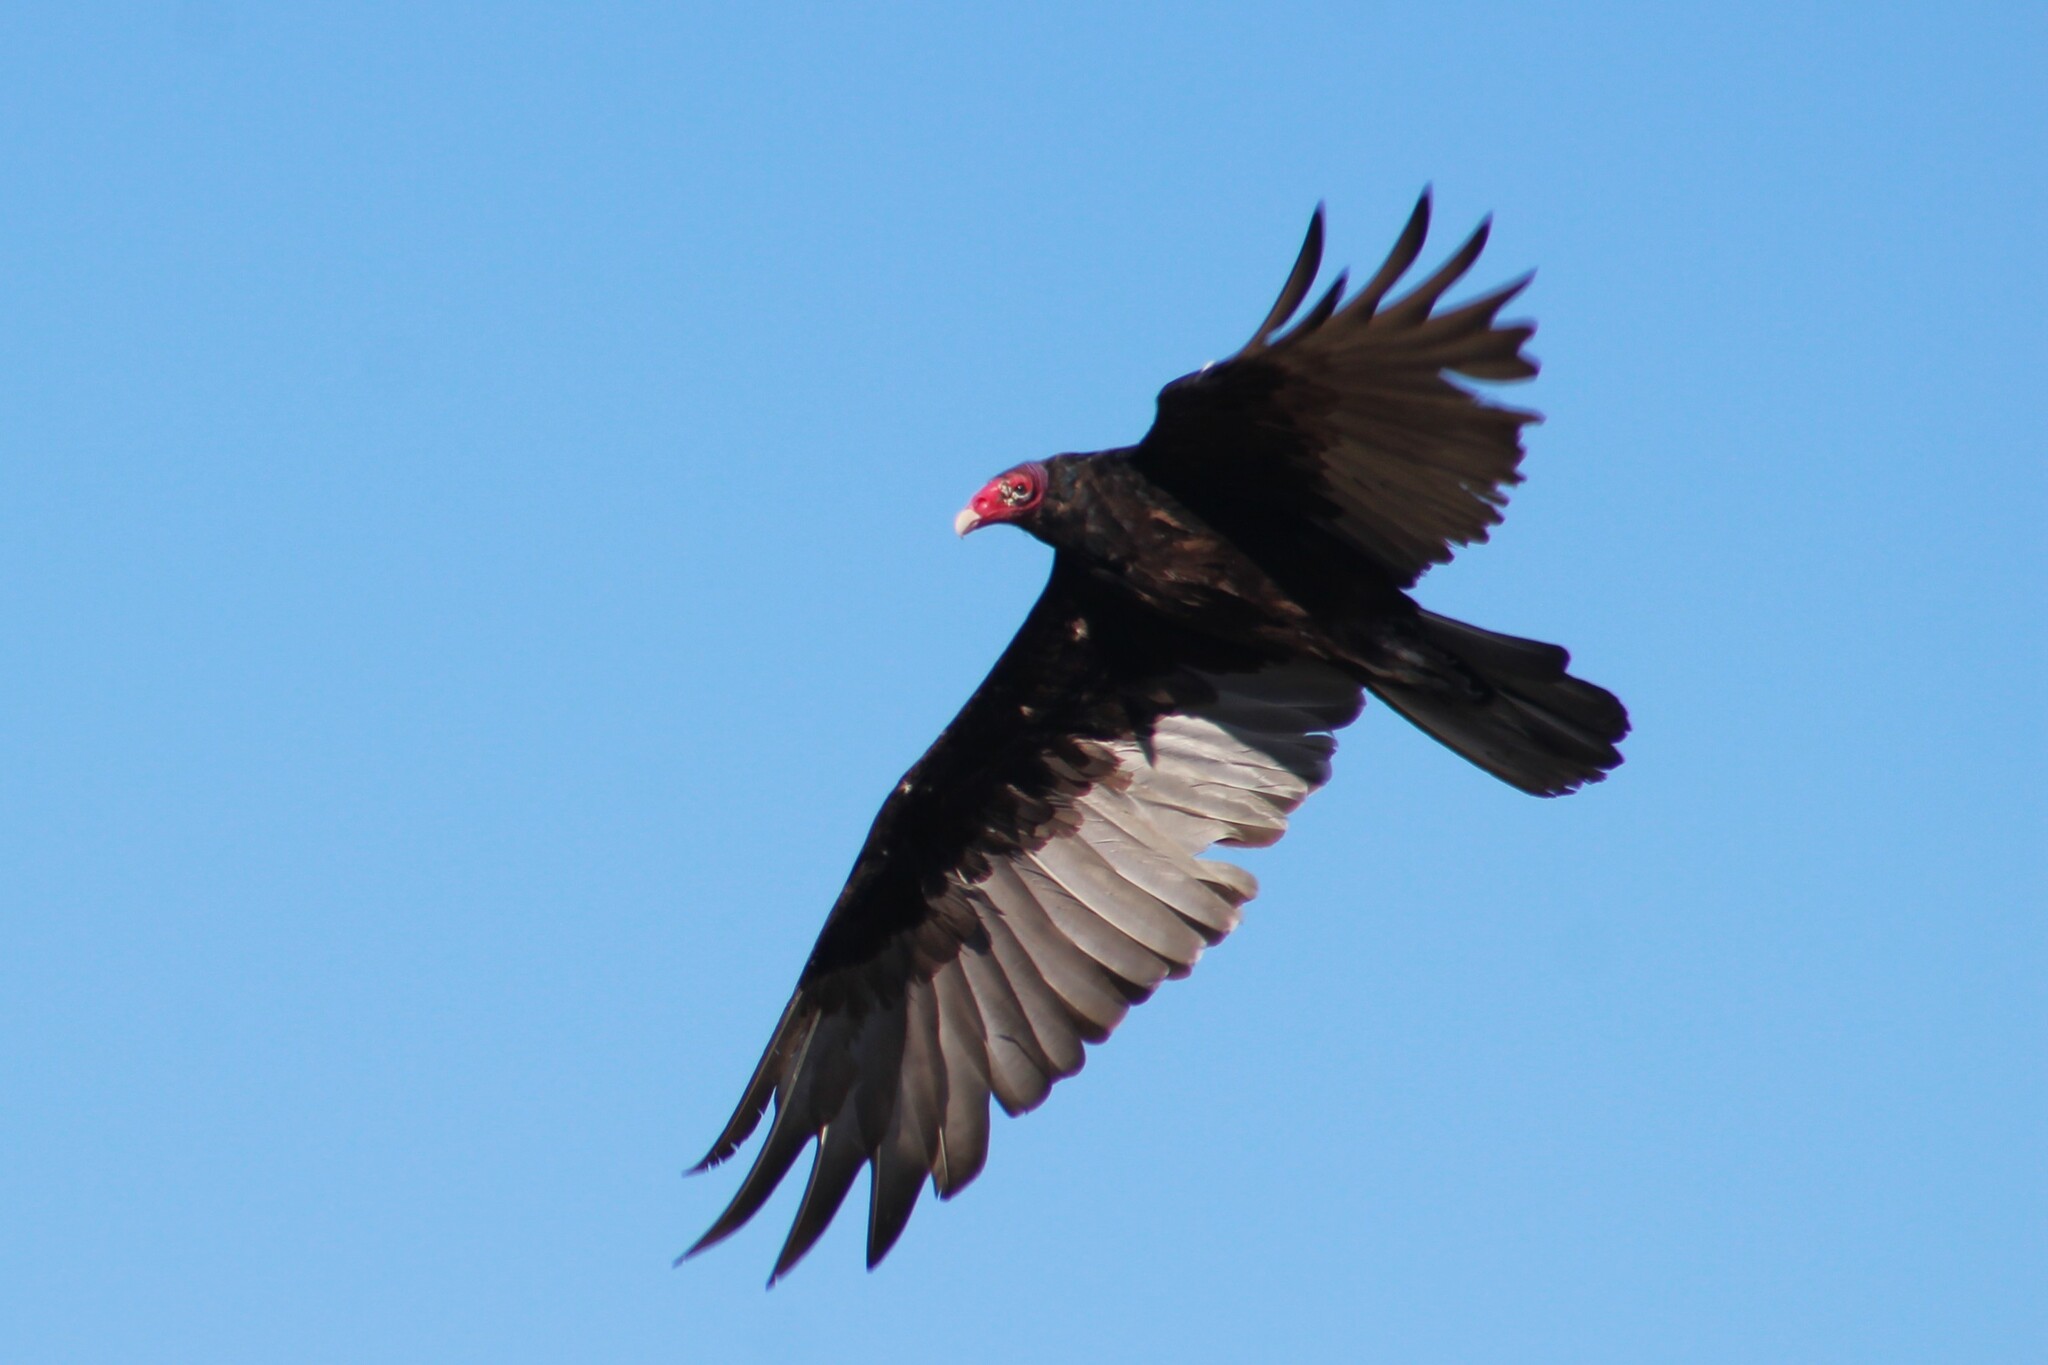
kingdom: Animalia
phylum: Chordata
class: Aves
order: Accipitriformes
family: Cathartidae
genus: Cathartes
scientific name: Cathartes aura
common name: Turkey vulture
